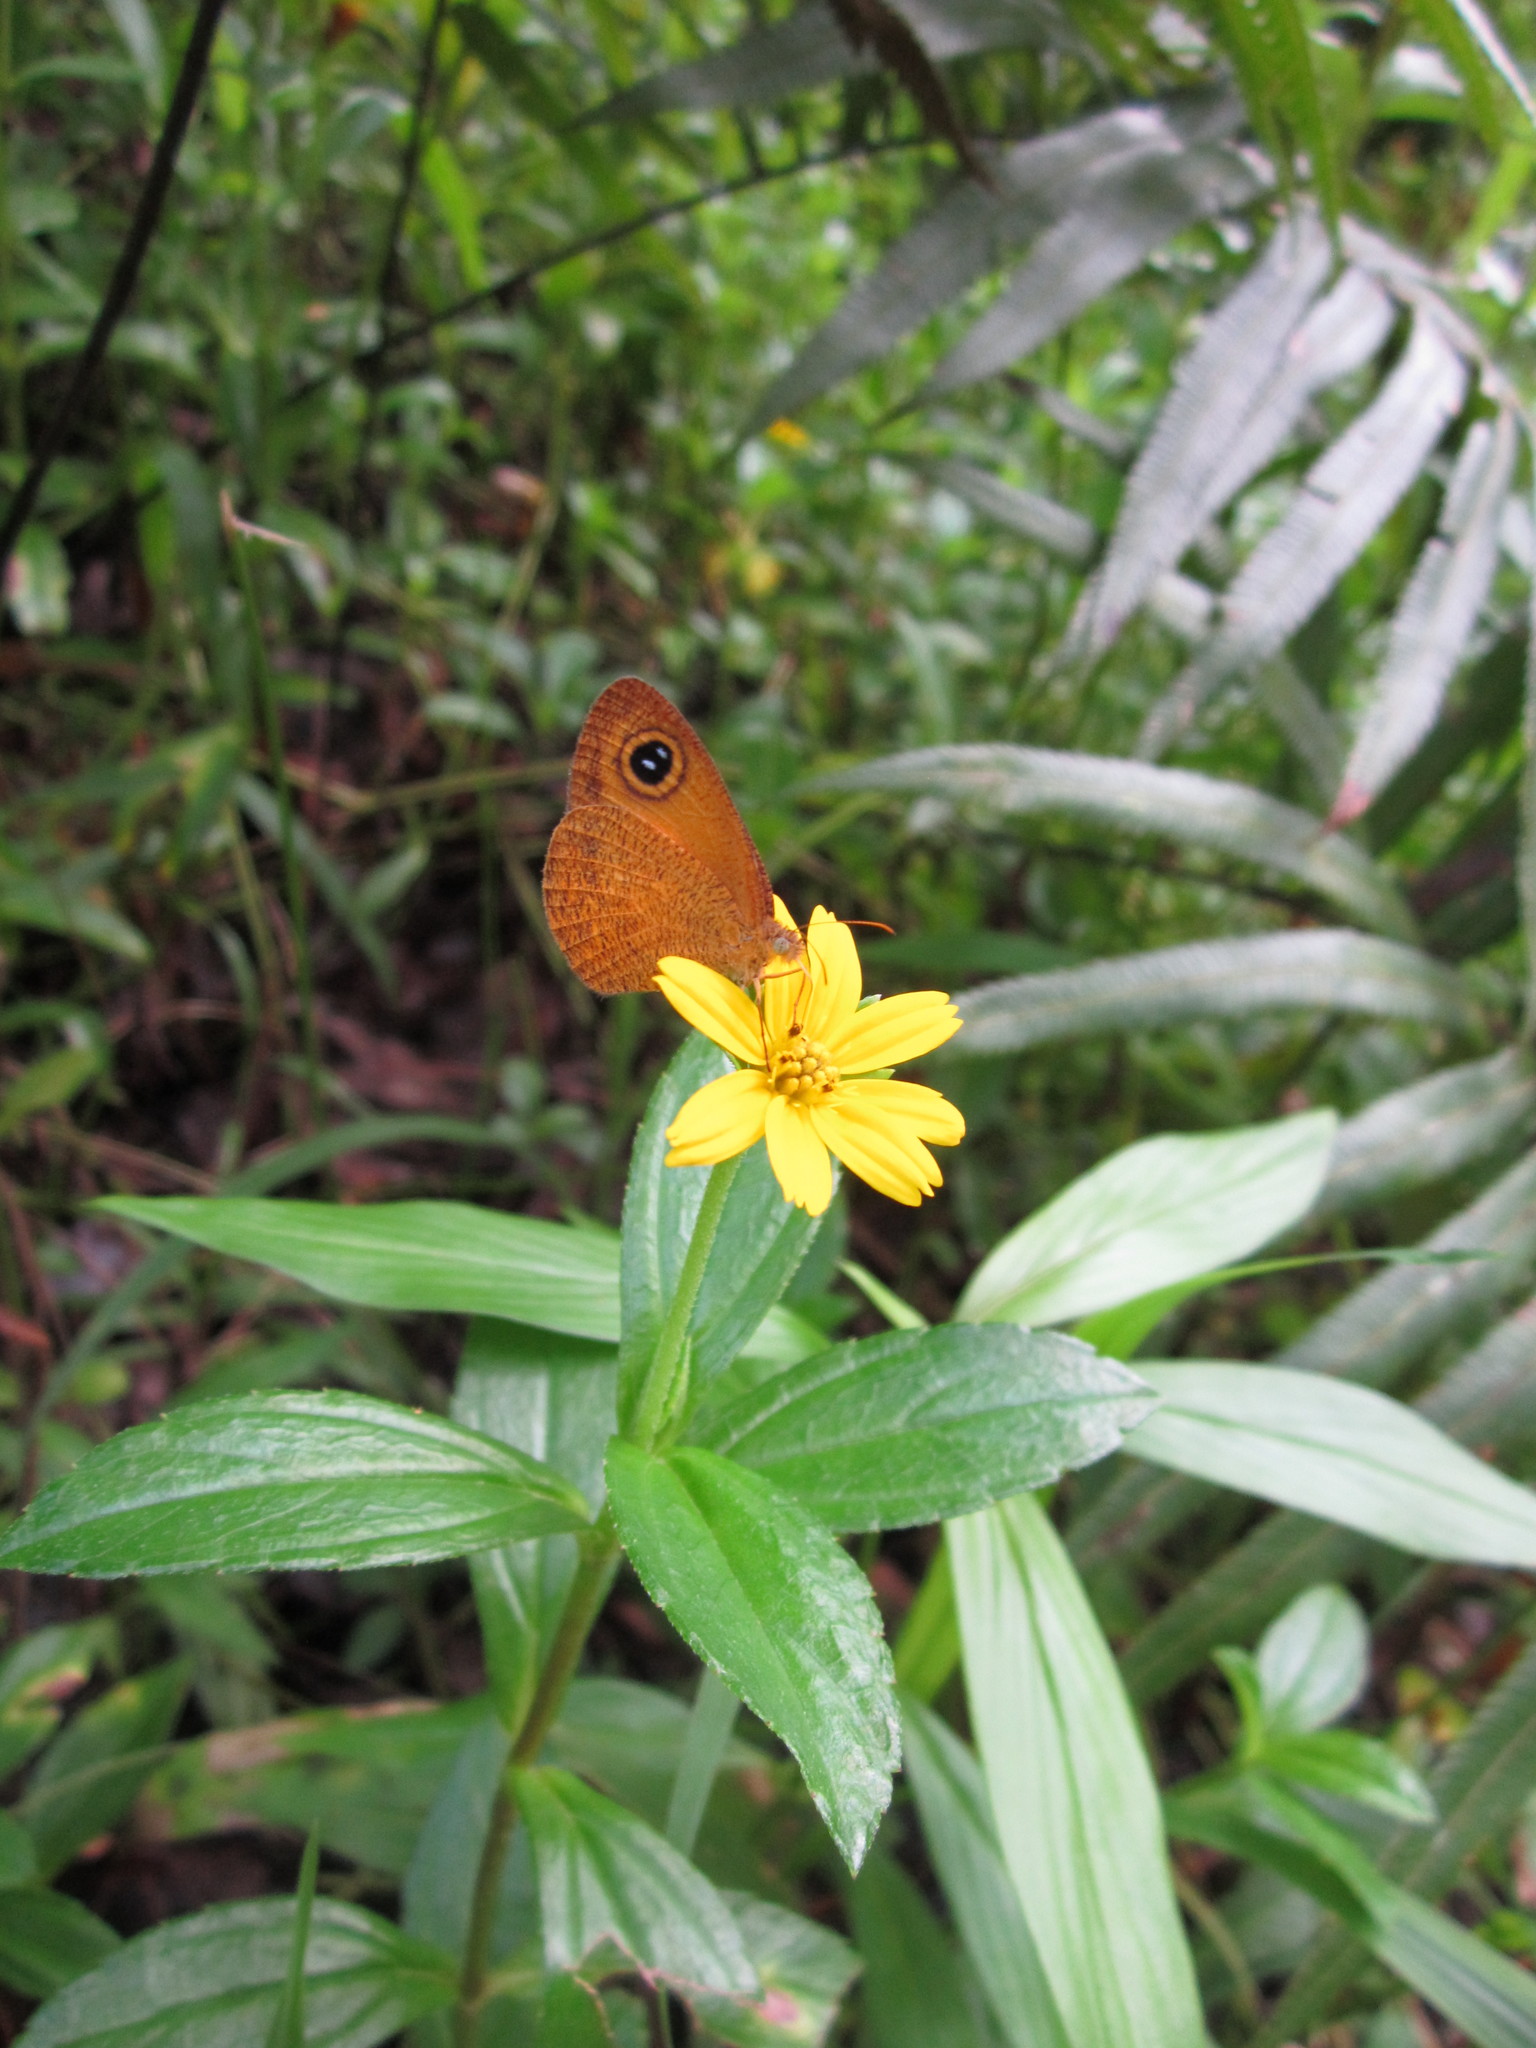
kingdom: Animalia
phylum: Arthropoda
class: Insecta
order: Lepidoptera
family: Nymphalidae
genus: Ypthima
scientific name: Ypthima sesara
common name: Common fijian ringlet
